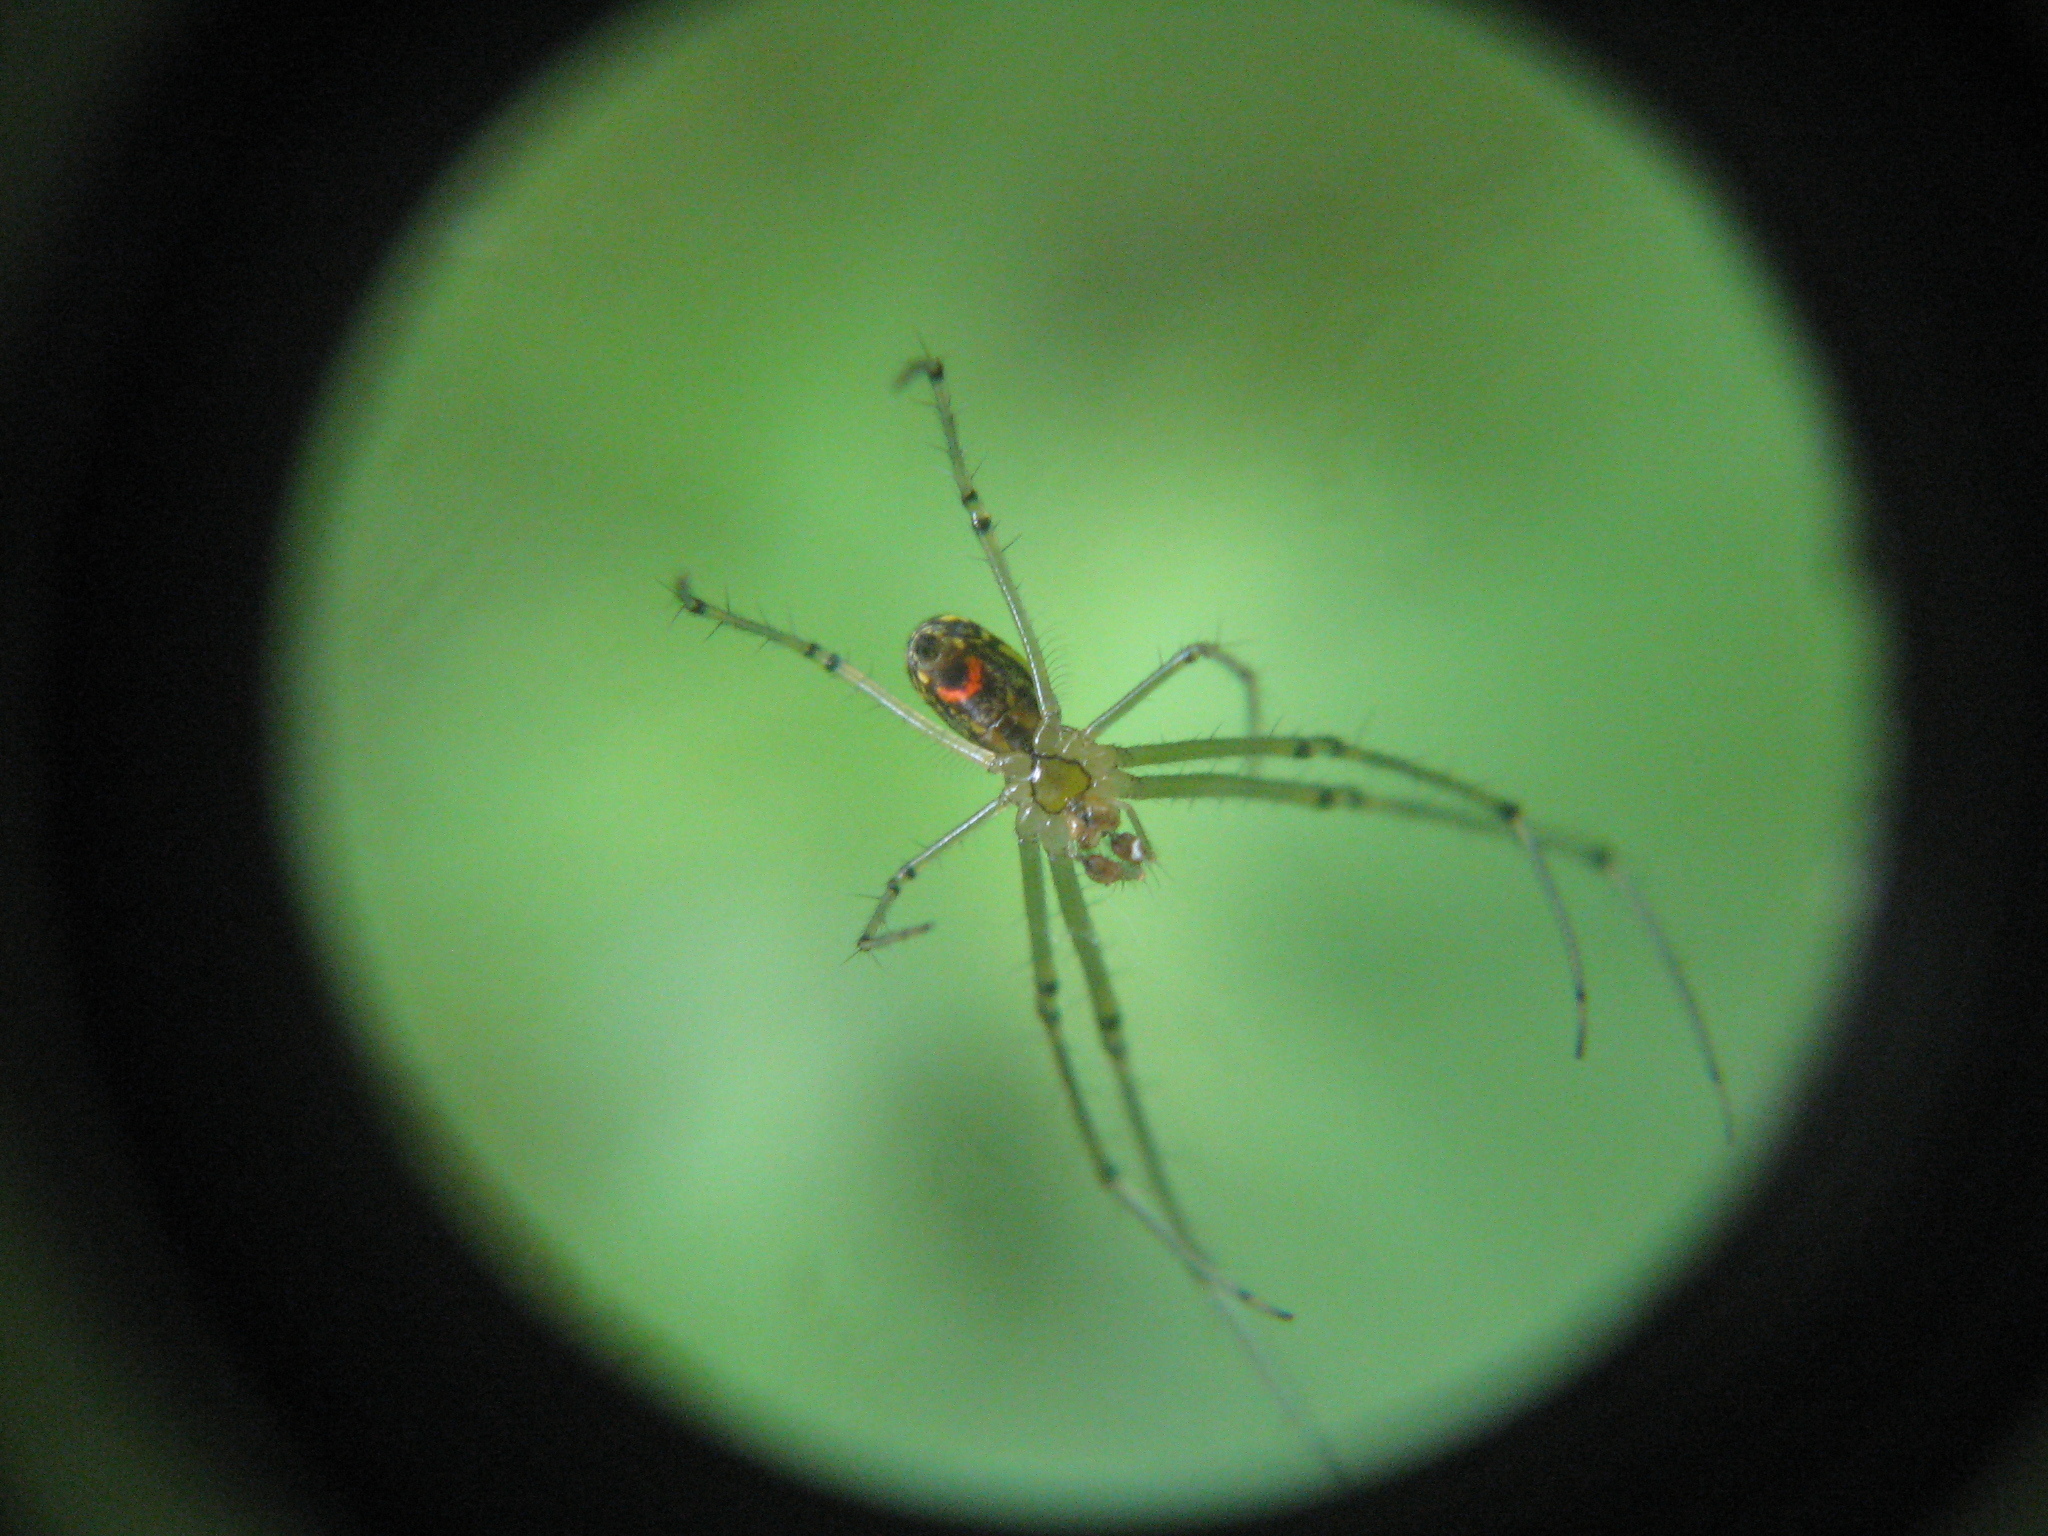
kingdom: Animalia
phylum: Arthropoda
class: Arachnida
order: Araneae
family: Tetragnathidae
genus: Leucauge
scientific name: Leucauge venusta
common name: Longjawed orb weavers
